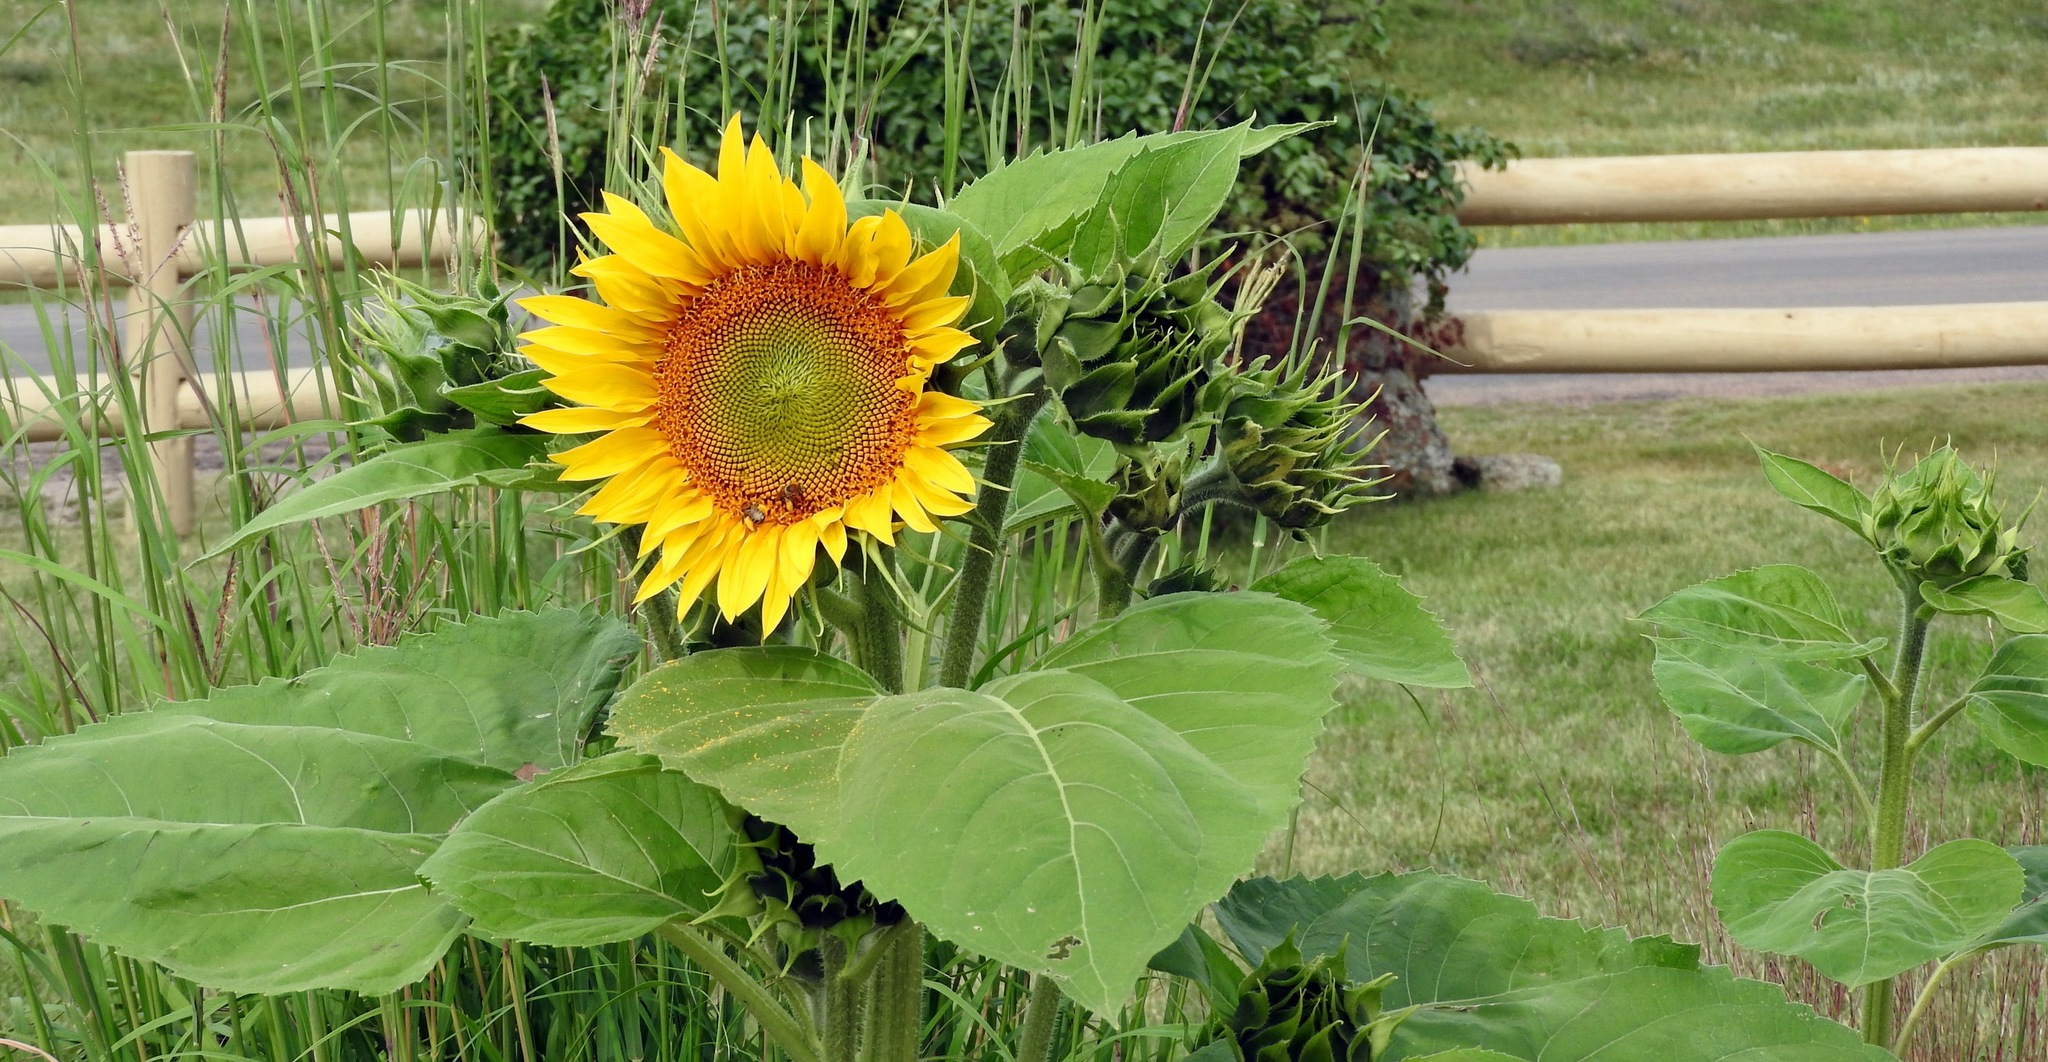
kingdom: Plantae
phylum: Tracheophyta
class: Magnoliopsida
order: Asterales
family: Asteraceae
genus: Helianthus
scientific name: Helianthus annuus
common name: Sunflower
